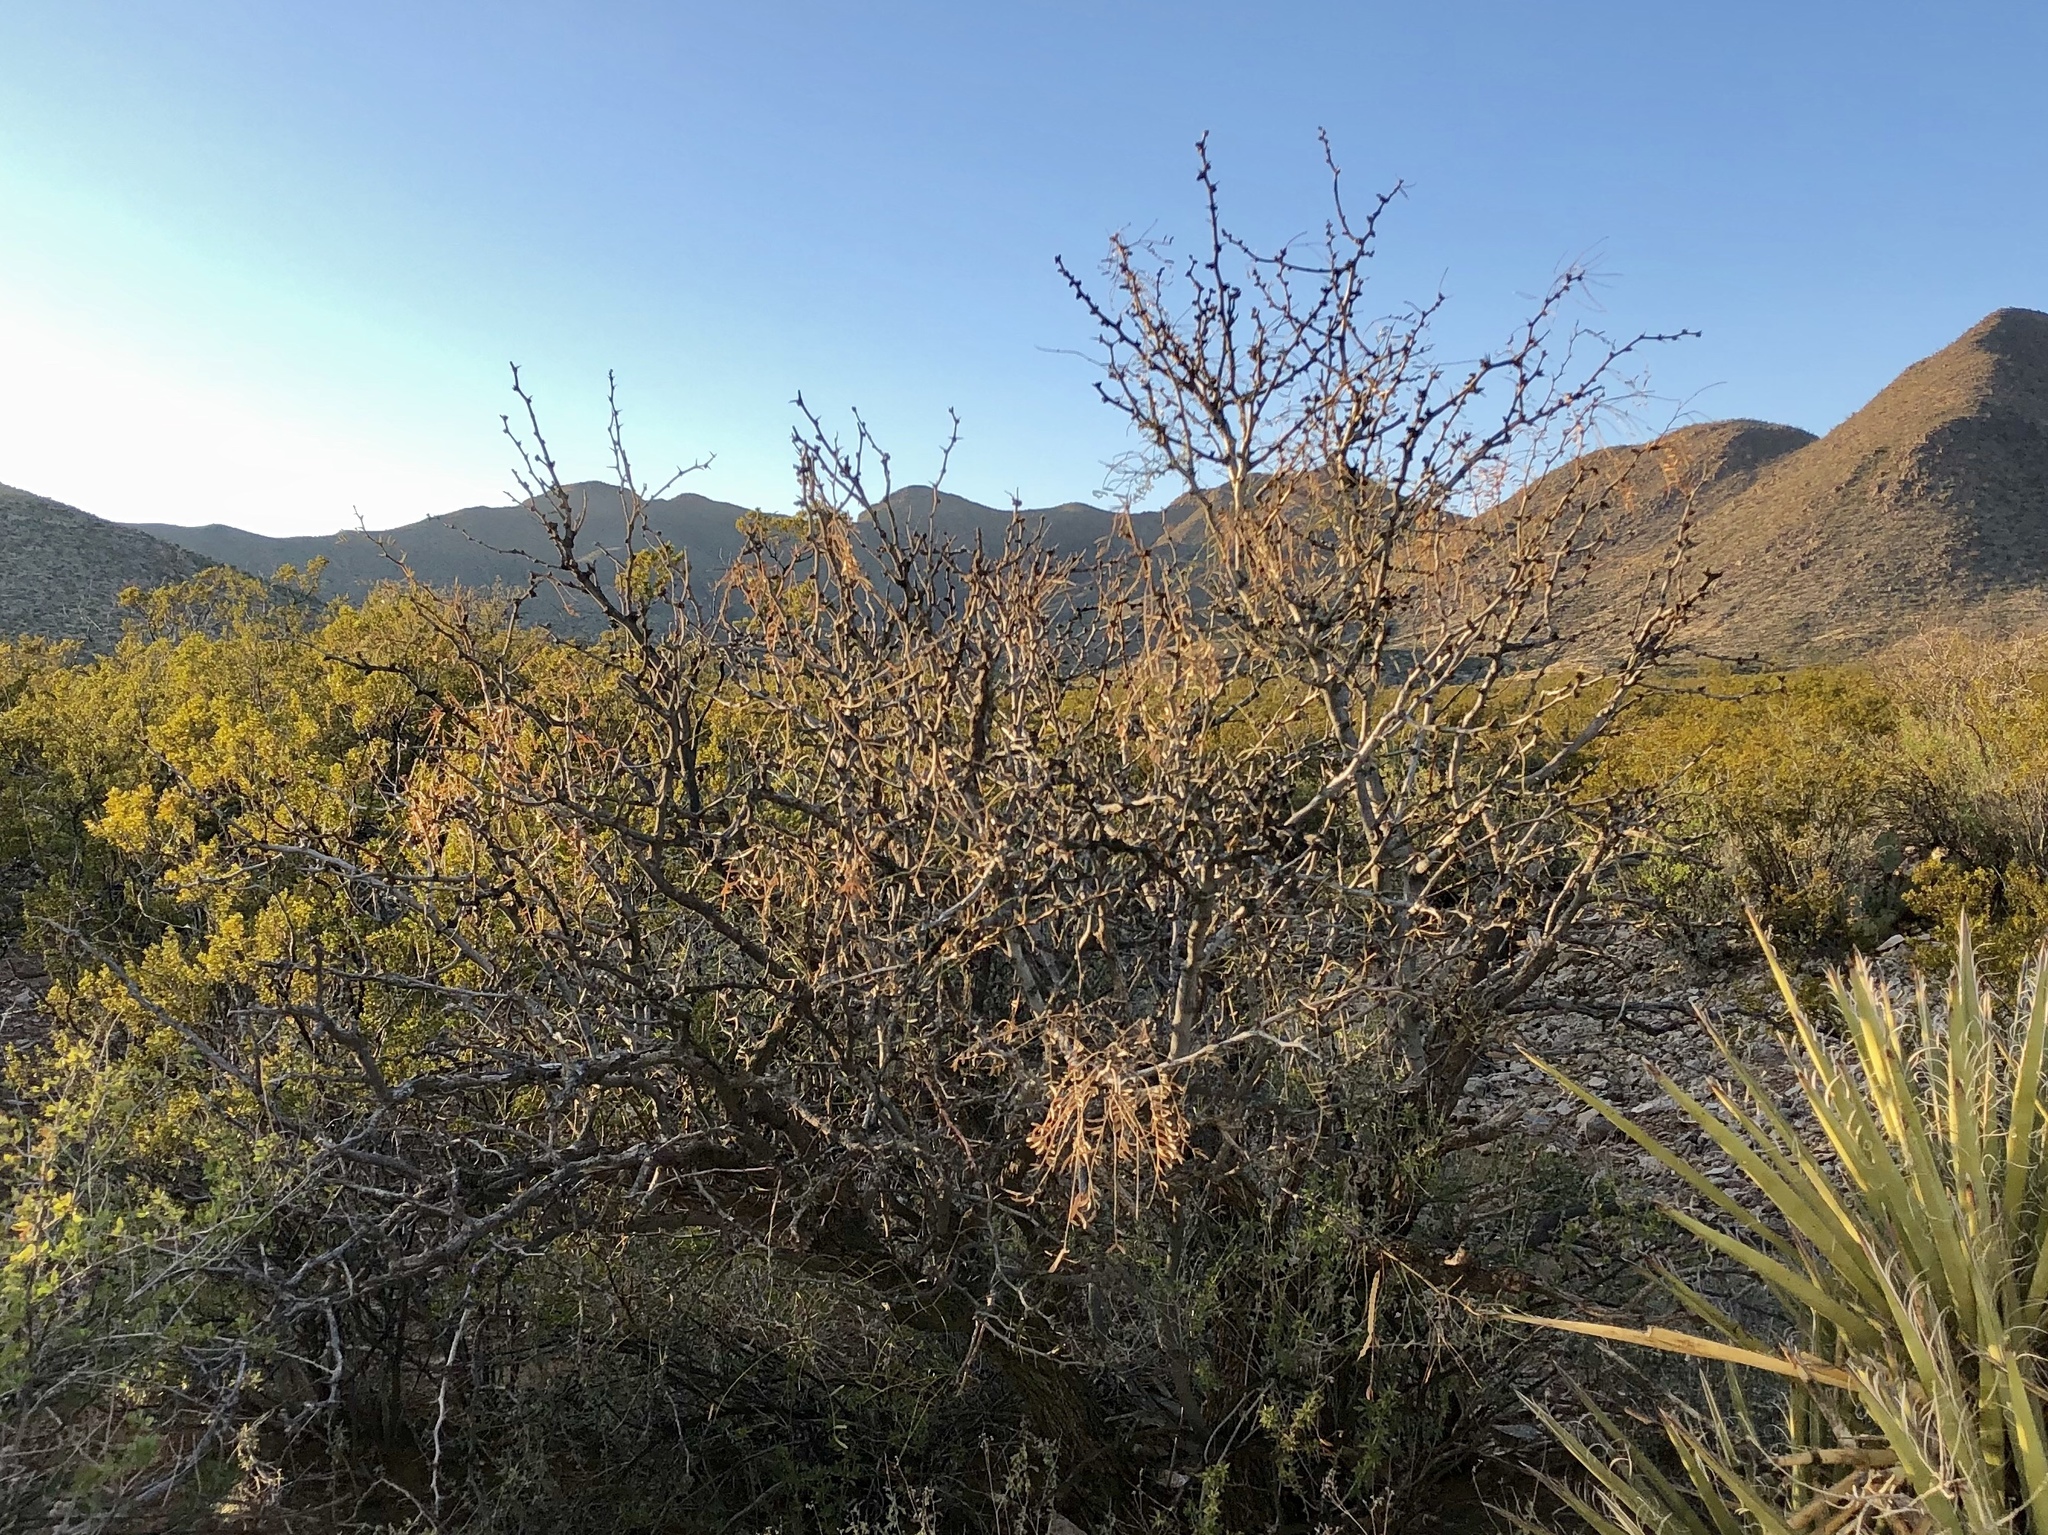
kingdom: Plantae
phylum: Tracheophyta
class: Magnoliopsida
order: Fabales
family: Fabaceae
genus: Prosopis
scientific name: Prosopis glandulosa
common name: Honey mesquite
